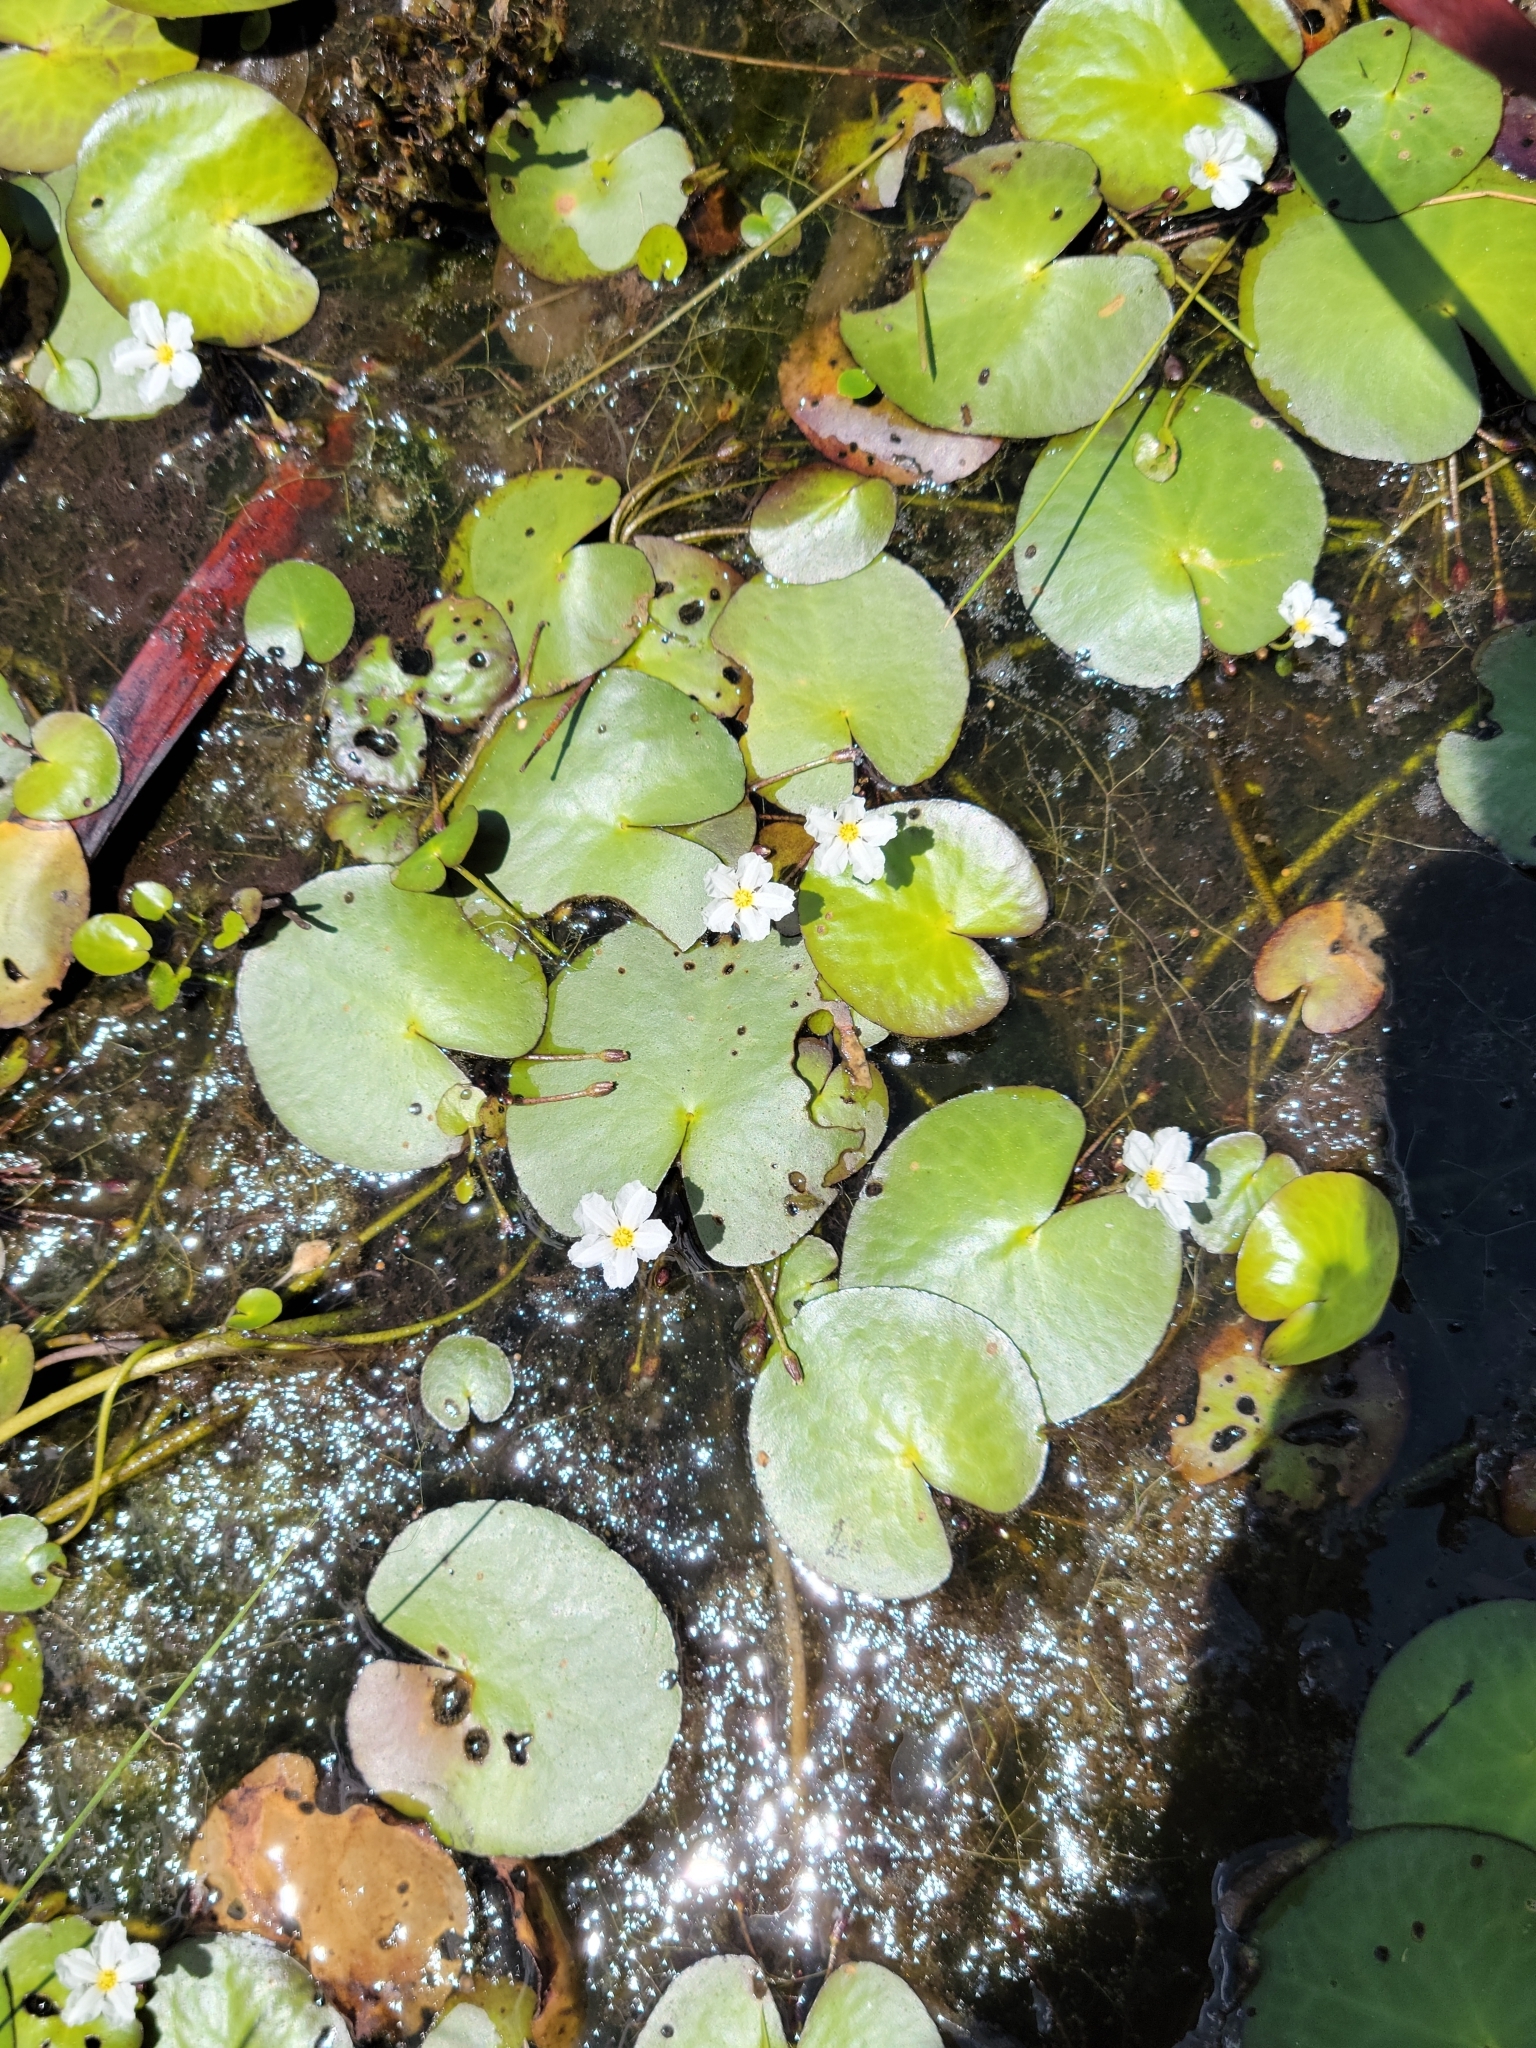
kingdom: Plantae
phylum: Tracheophyta
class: Magnoliopsida
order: Asterales
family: Menyanthaceae
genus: Nymphoides
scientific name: Nymphoides aquatica
